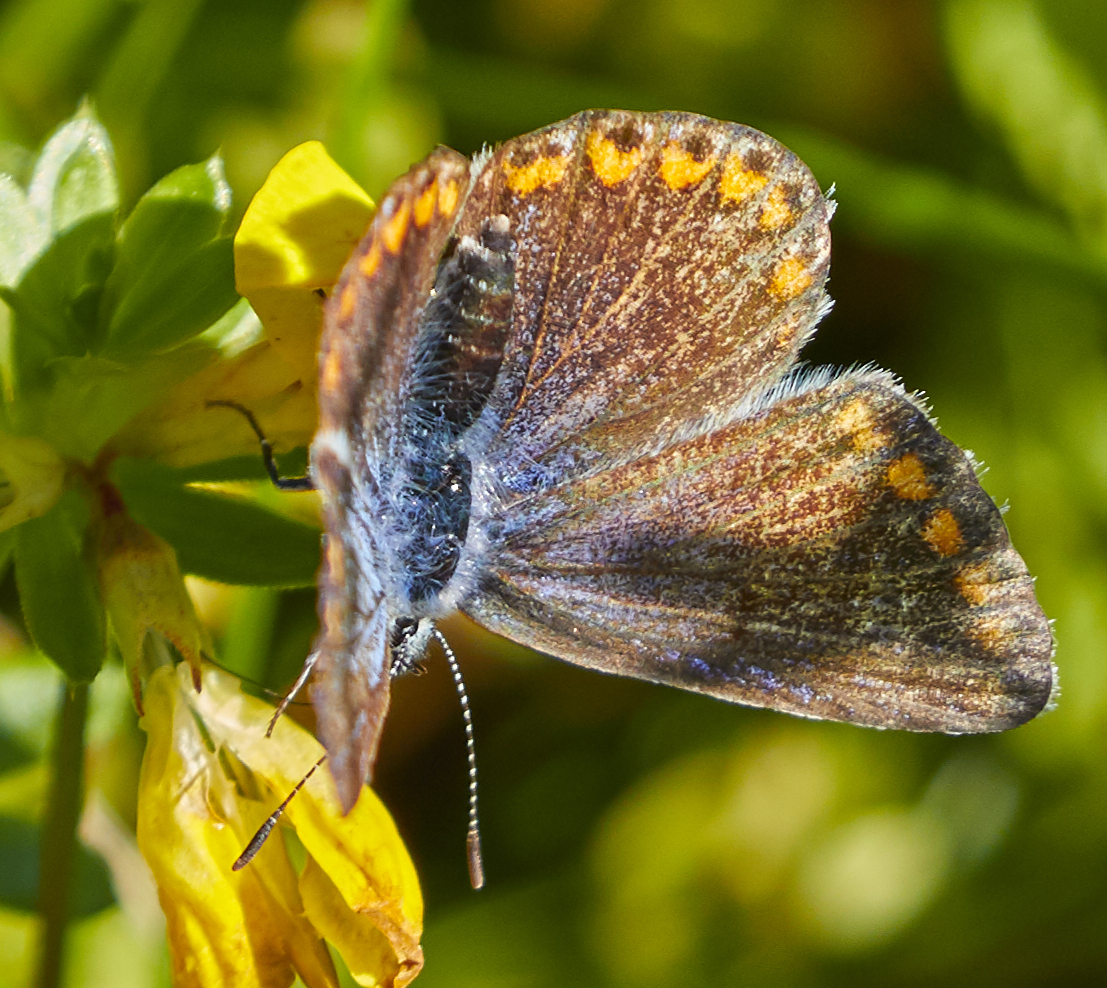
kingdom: Animalia
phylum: Arthropoda
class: Insecta
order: Lepidoptera
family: Lycaenidae
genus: Polyommatus
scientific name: Polyommatus icarus
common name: Common blue
